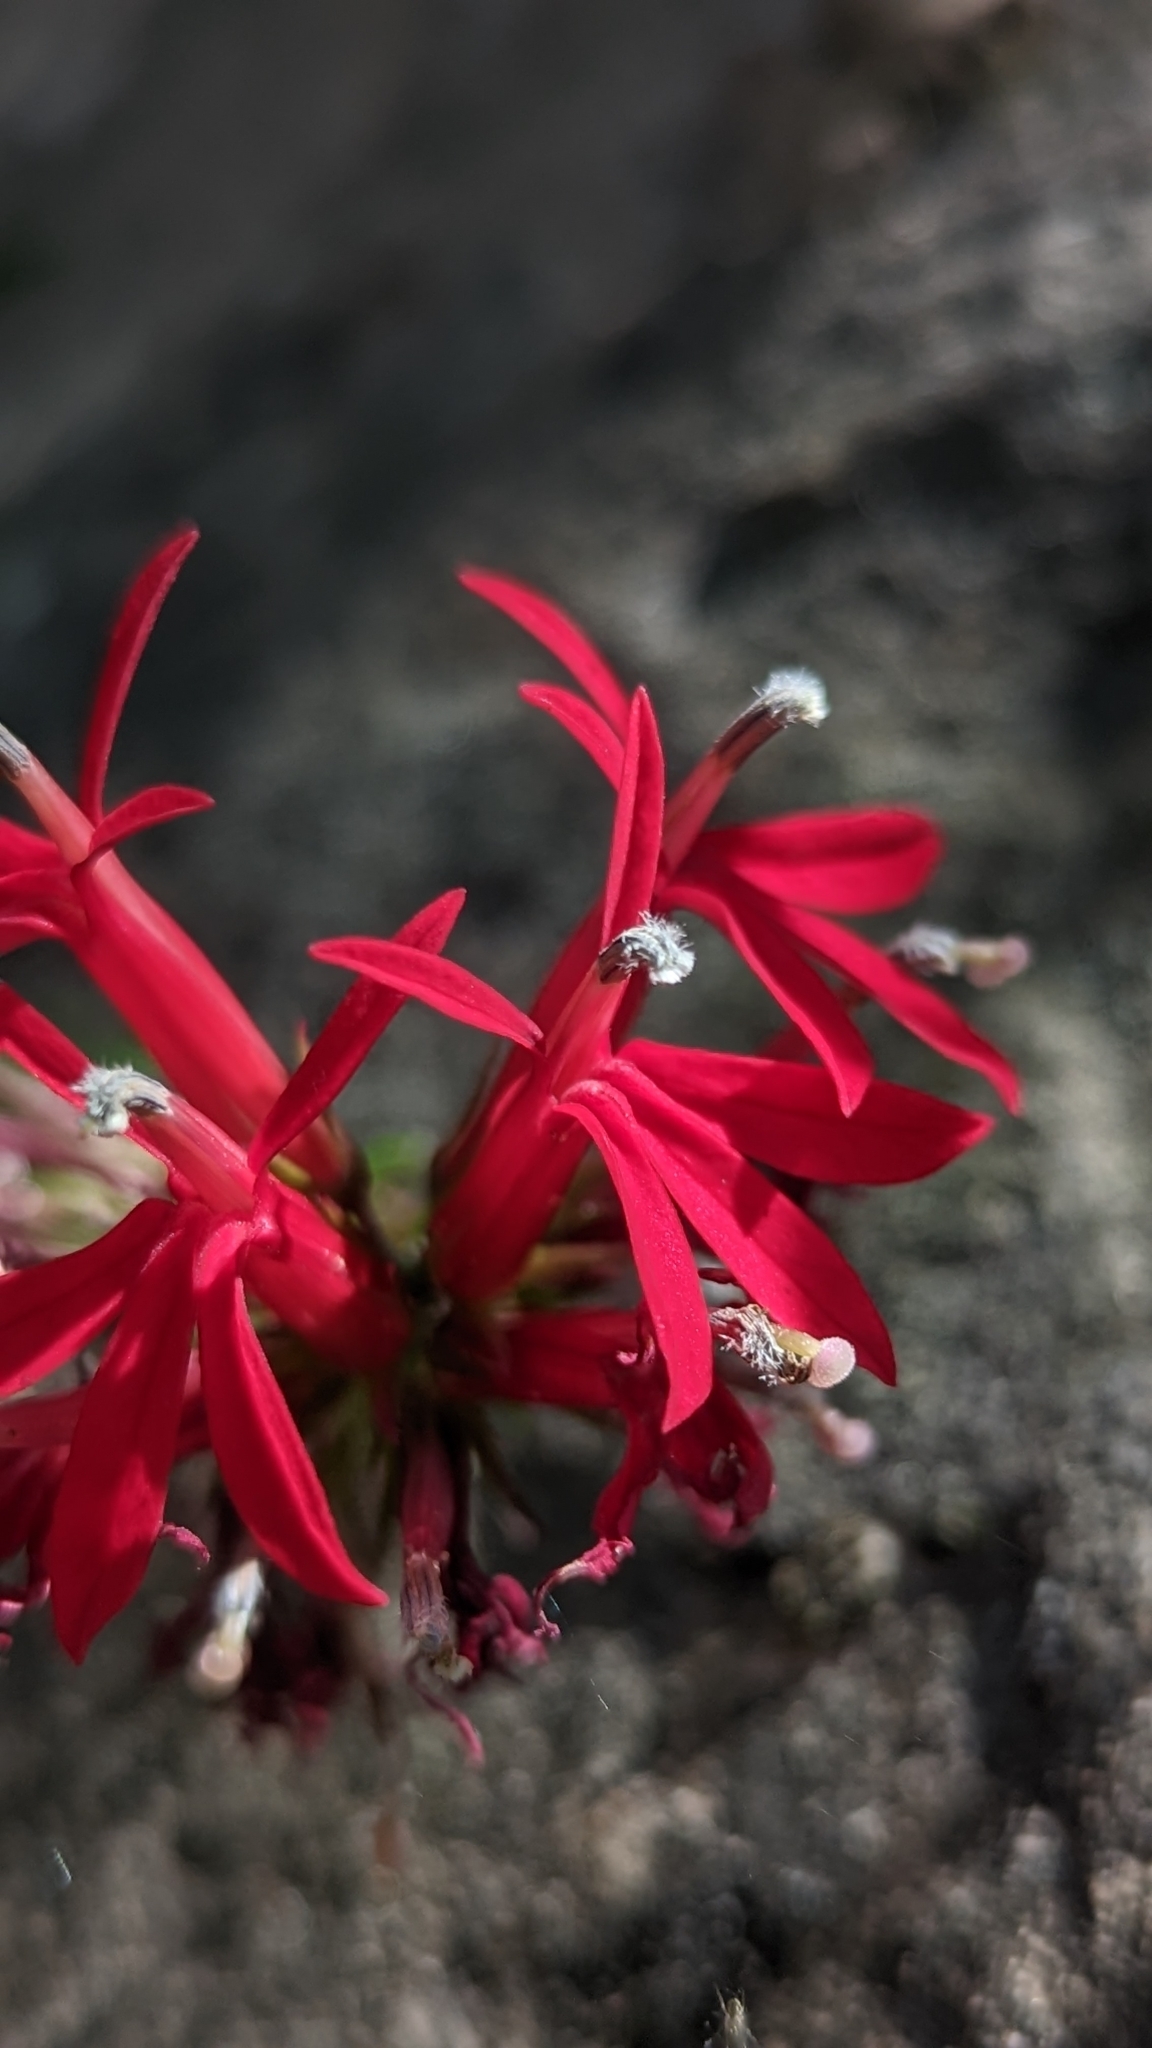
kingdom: Plantae
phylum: Tracheophyta
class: Magnoliopsida
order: Asterales
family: Campanulaceae
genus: Lobelia
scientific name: Lobelia cardinalis
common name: Cardinal flower
